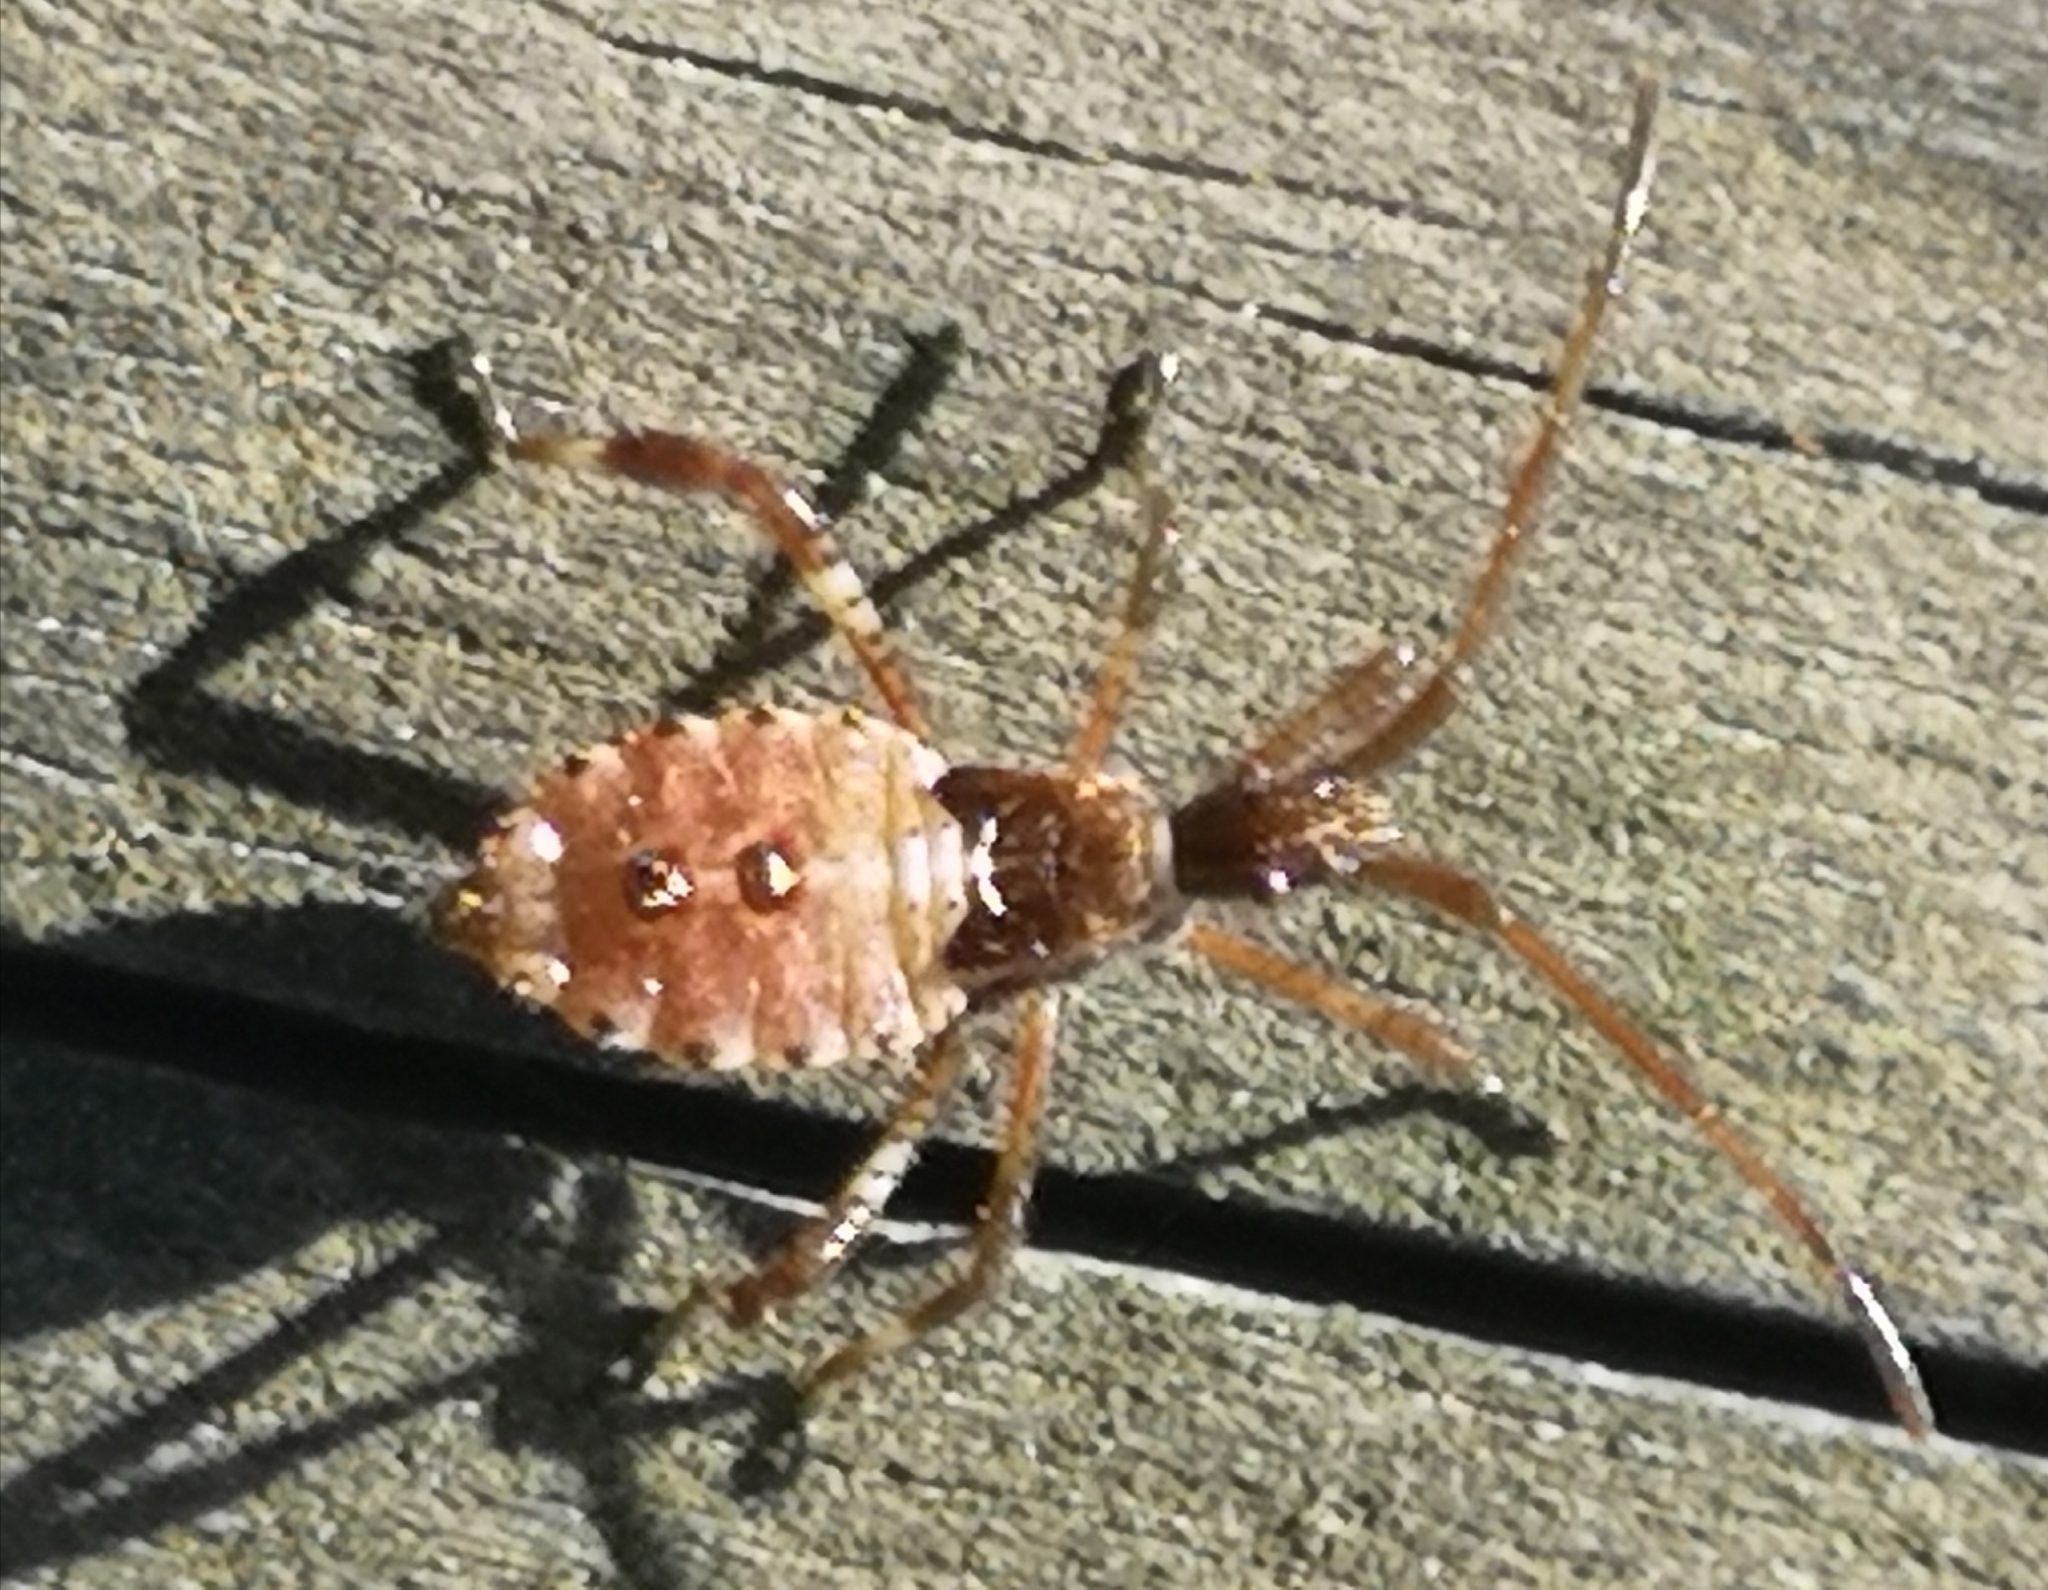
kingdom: Animalia
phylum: Arthropoda
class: Insecta
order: Hemiptera
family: Coreidae
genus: Leptoglossus
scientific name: Leptoglossus occidentalis
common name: Western conifer-seed bug
